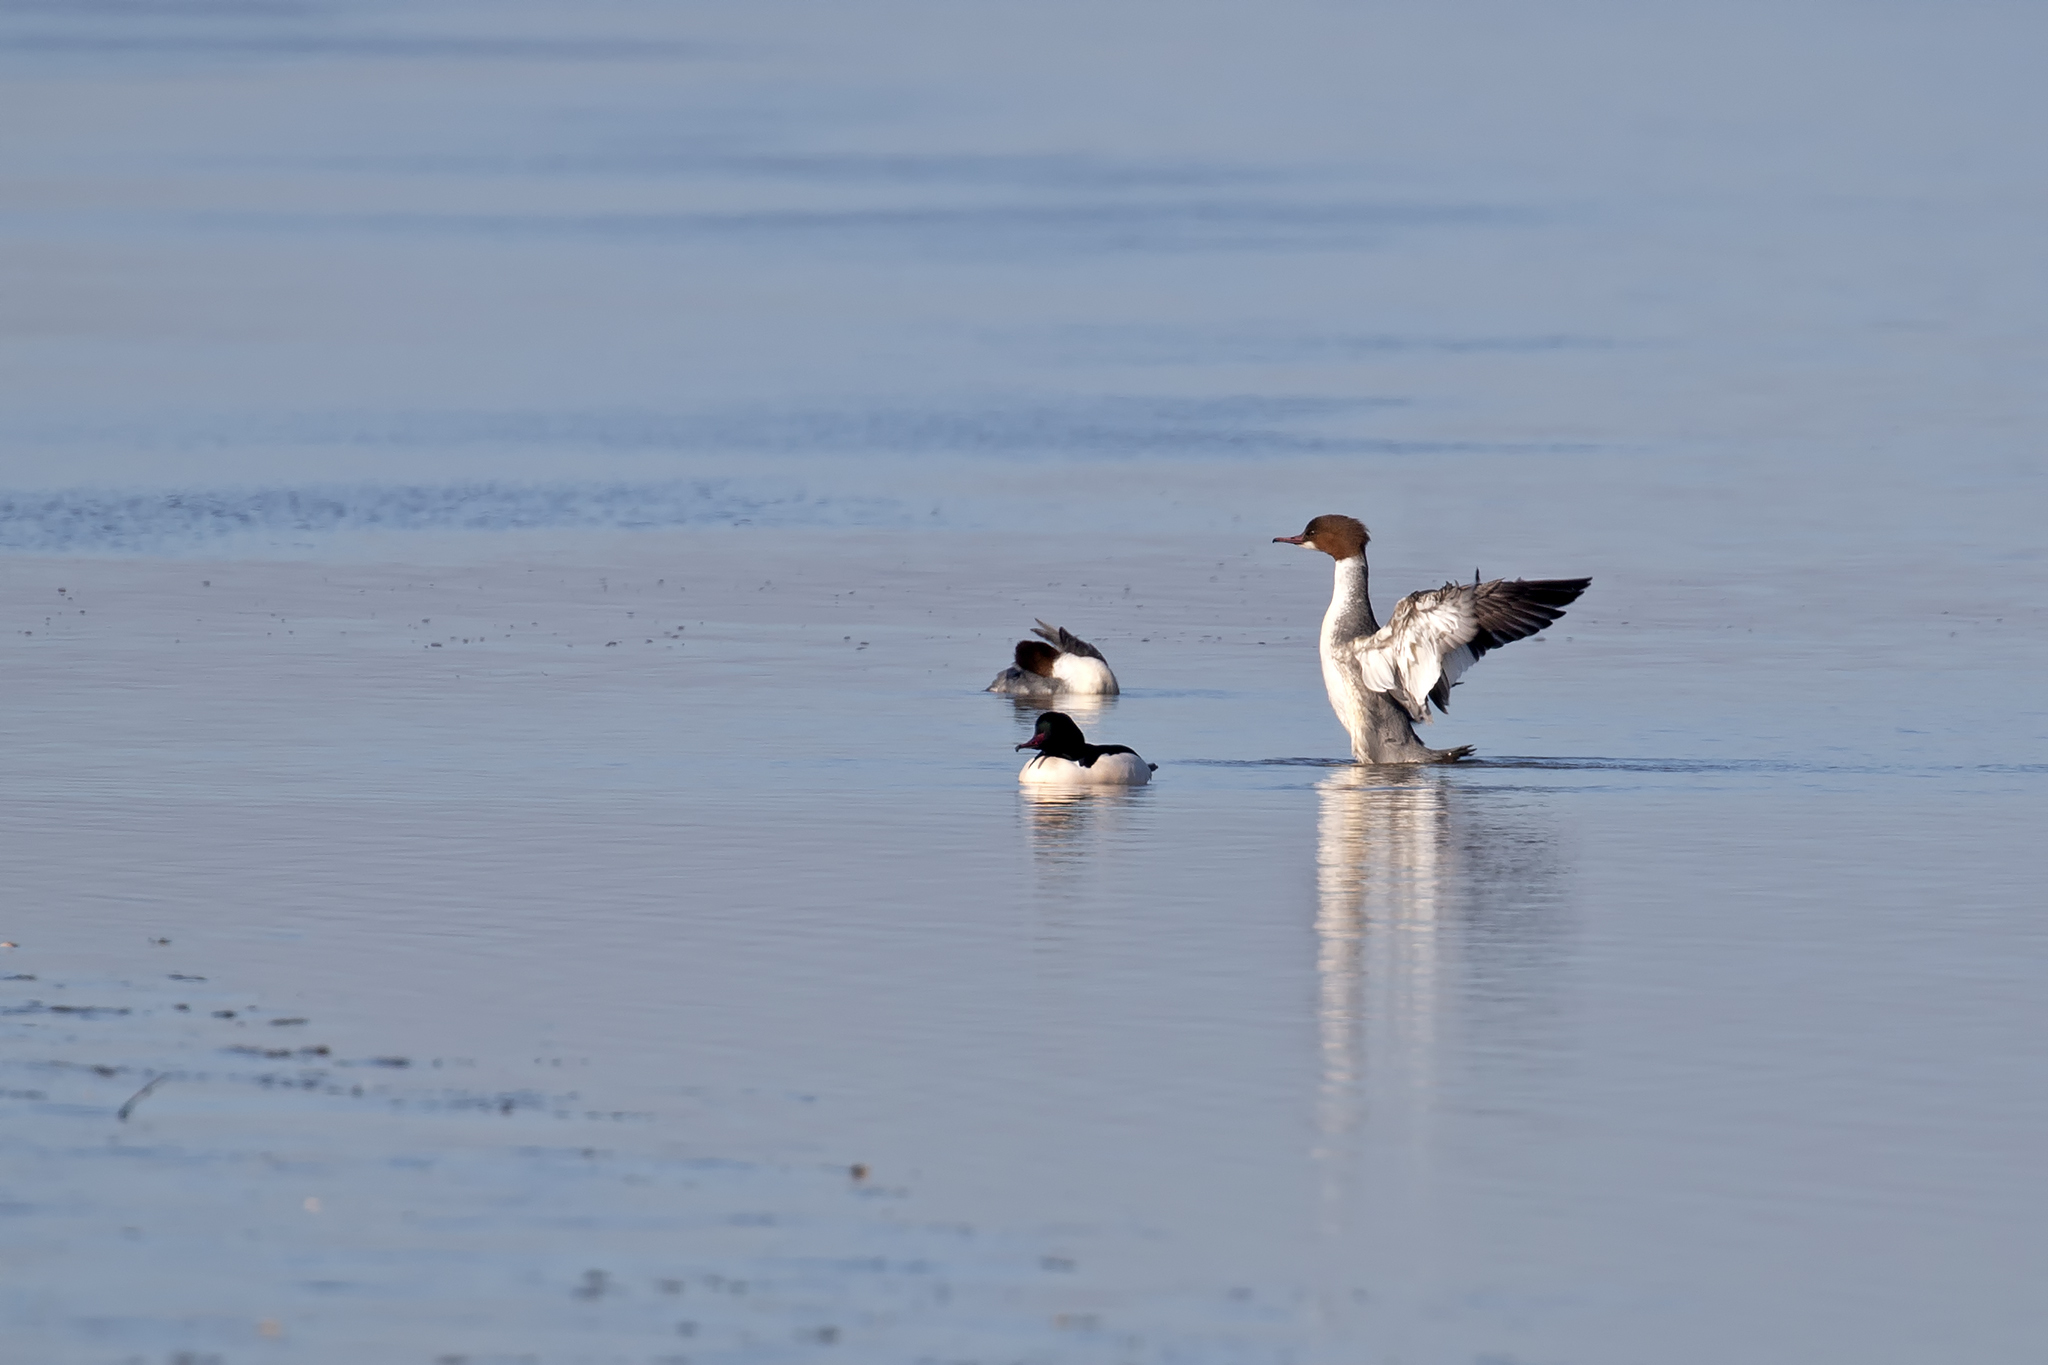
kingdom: Animalia
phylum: Chordata
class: Aves
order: Anseriformes
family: Anatidae
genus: Mergus
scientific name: Mergus merganser
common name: Common merganser
